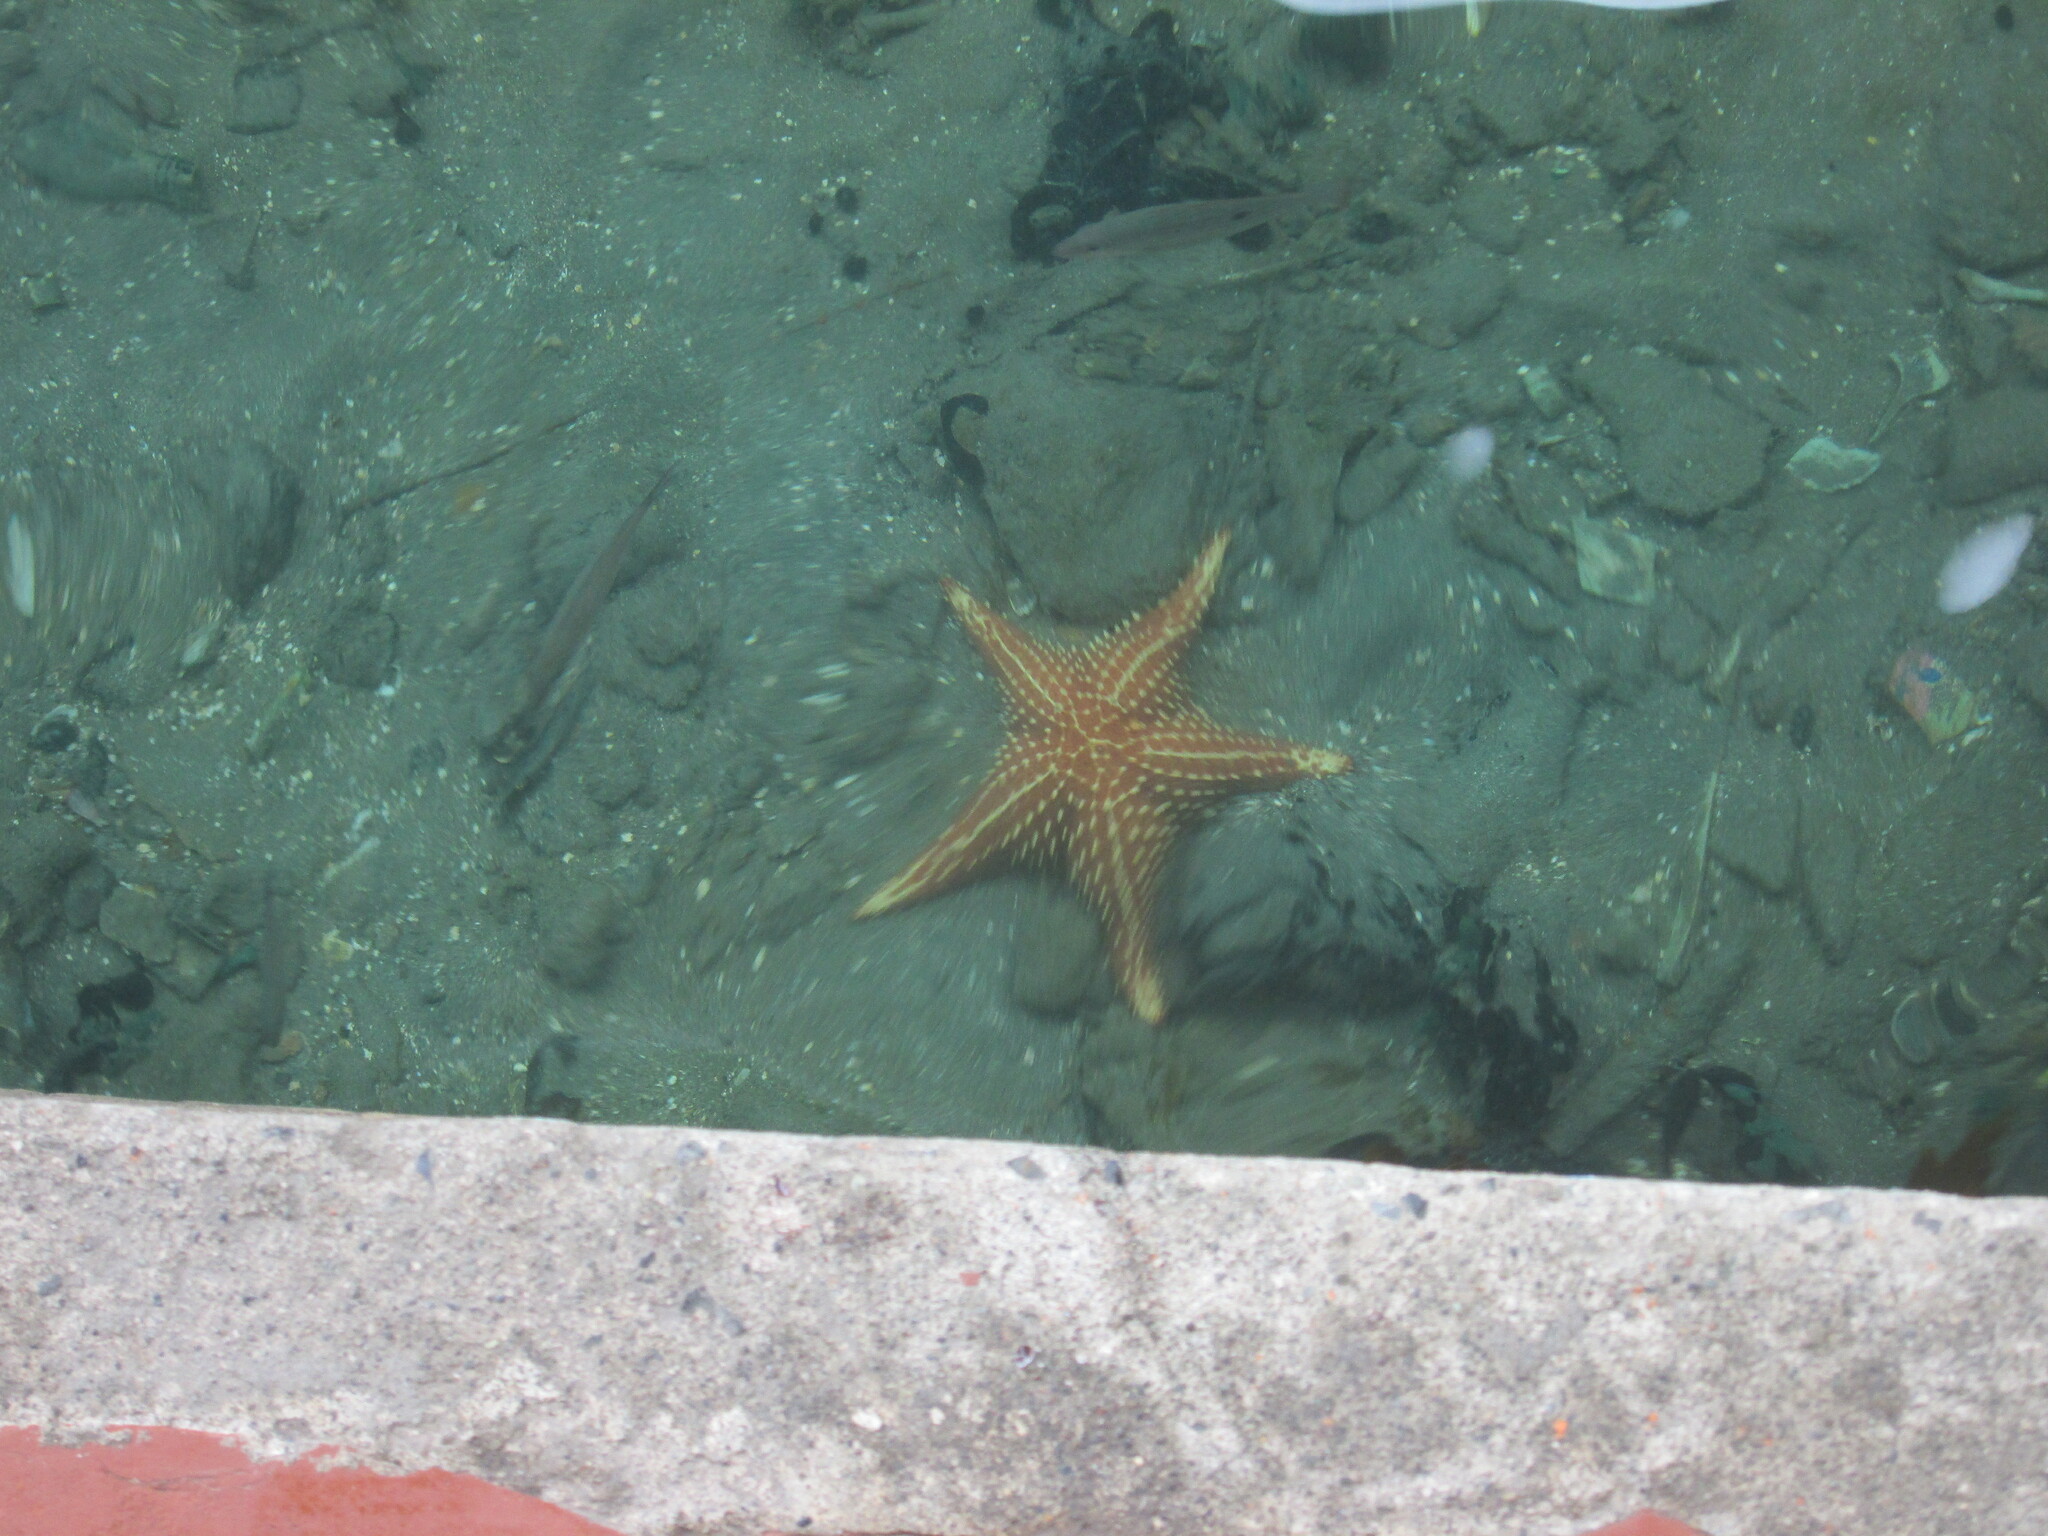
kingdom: Animalia
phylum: Echinodermata
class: Asteroidea
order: Valvatida
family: Oreasteridae
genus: Oreaster
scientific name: Oreaster reticulatus
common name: Cushion sea star
